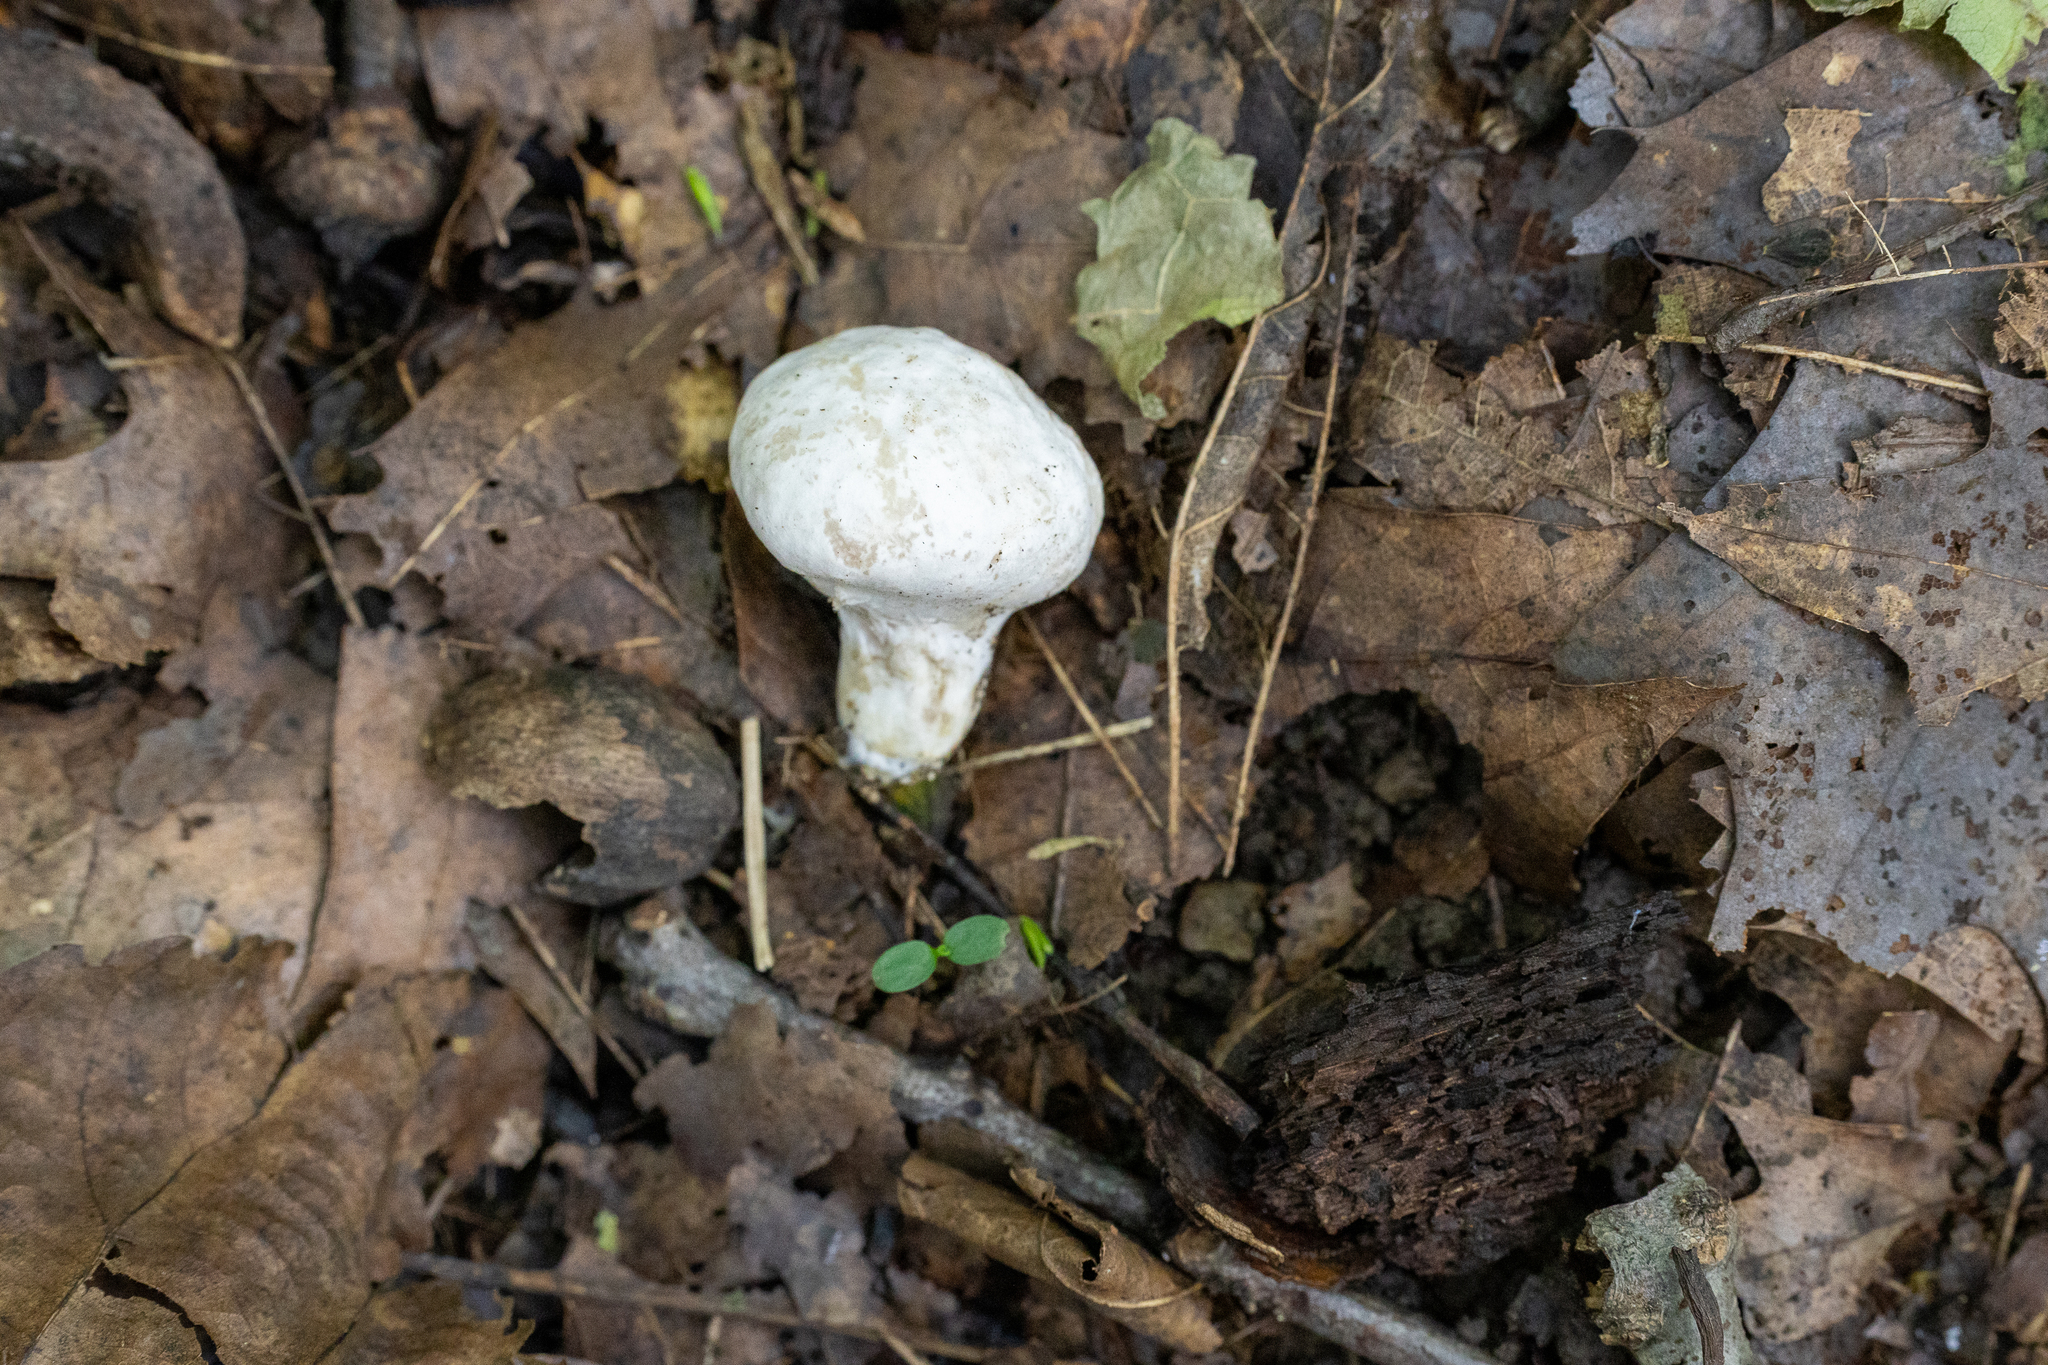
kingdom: Fungi
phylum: Basidiomycota
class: Agaricomycetes
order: Agaricales
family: Entolomataceae
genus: Entoloma
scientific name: Entoloma abortivum
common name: Aborted entoloma
